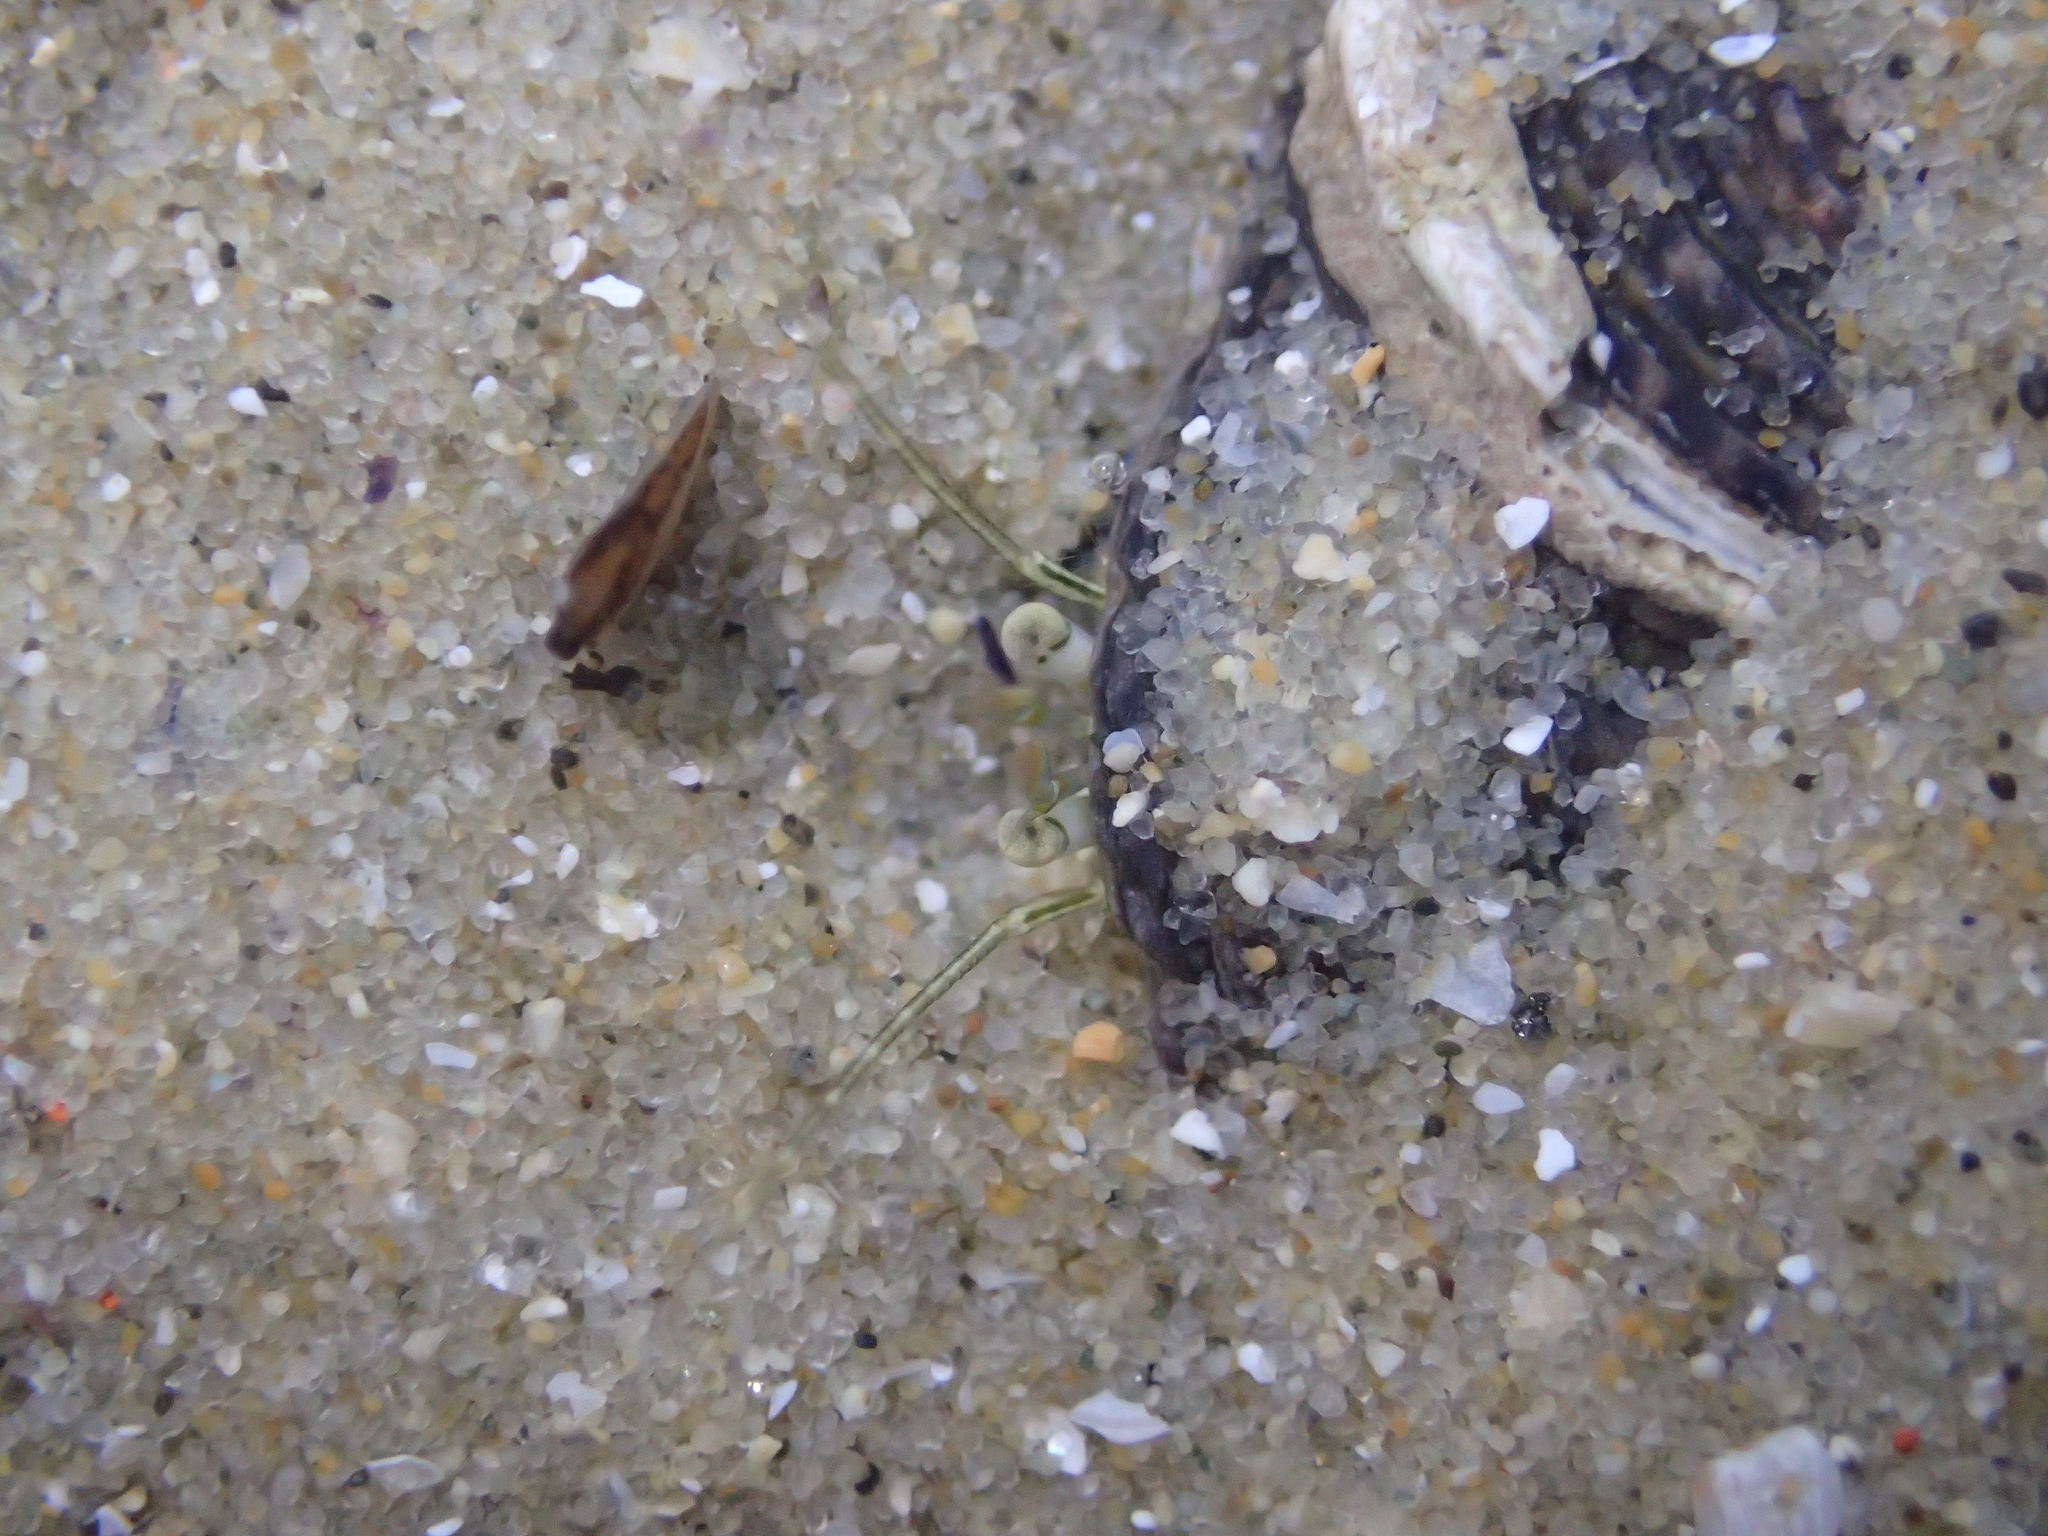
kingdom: Animalia
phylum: Arthropoda
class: Malacostraca
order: Decapoda
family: Paguridae
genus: Pagurus
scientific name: Pagurus novizealandiae
